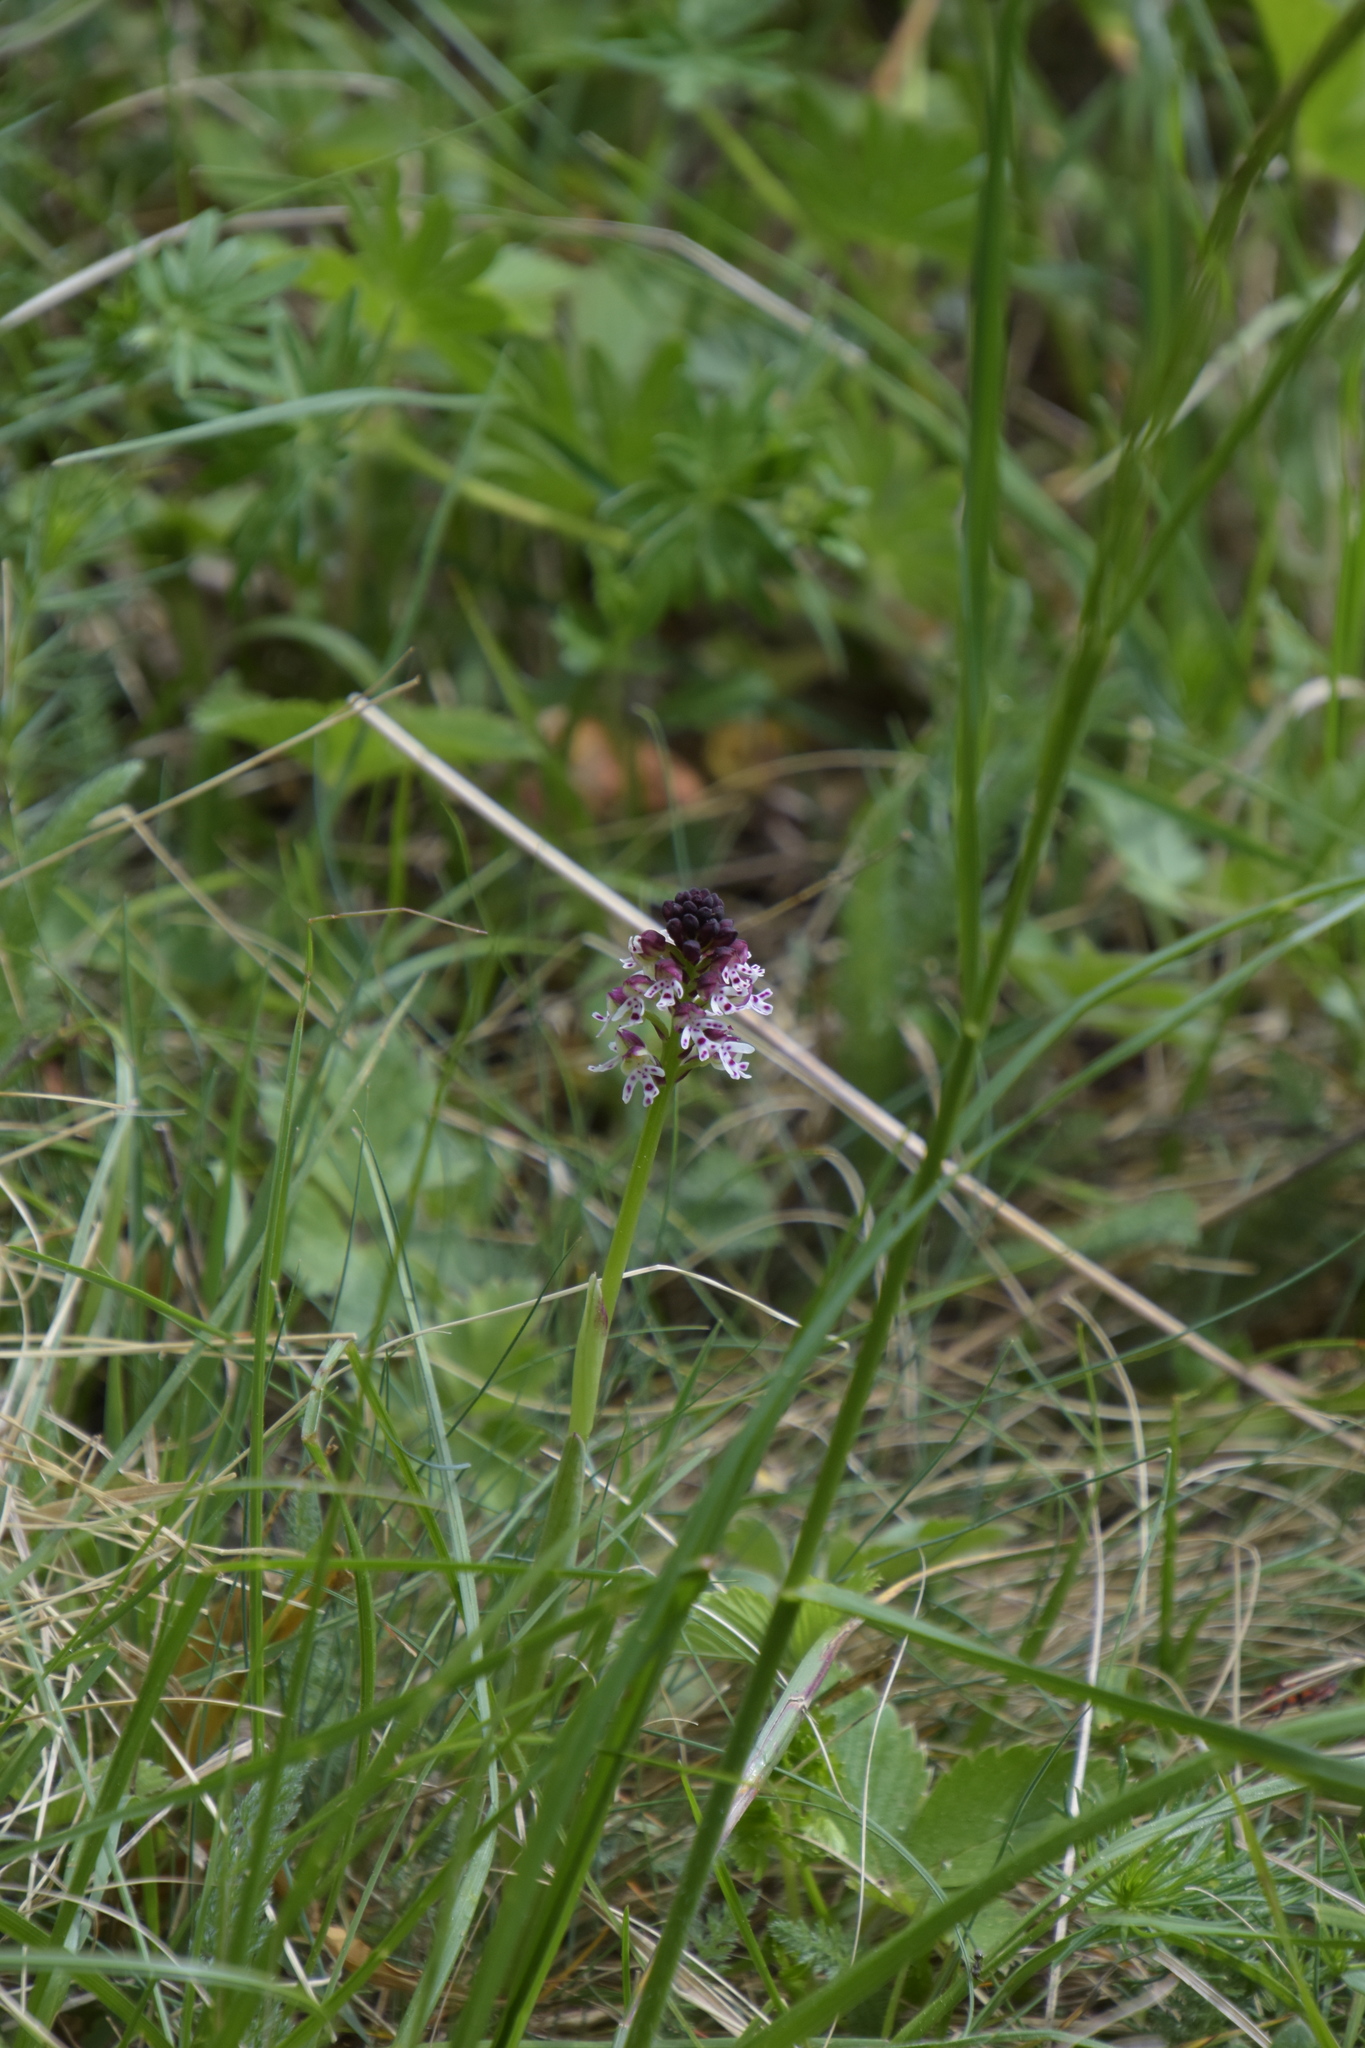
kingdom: Plantae
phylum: Tracheophyta
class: Liliopsida
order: Asparagales
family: Orchidaceae
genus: Neotinea
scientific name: Neotinea ustulata
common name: Burnt orchid
